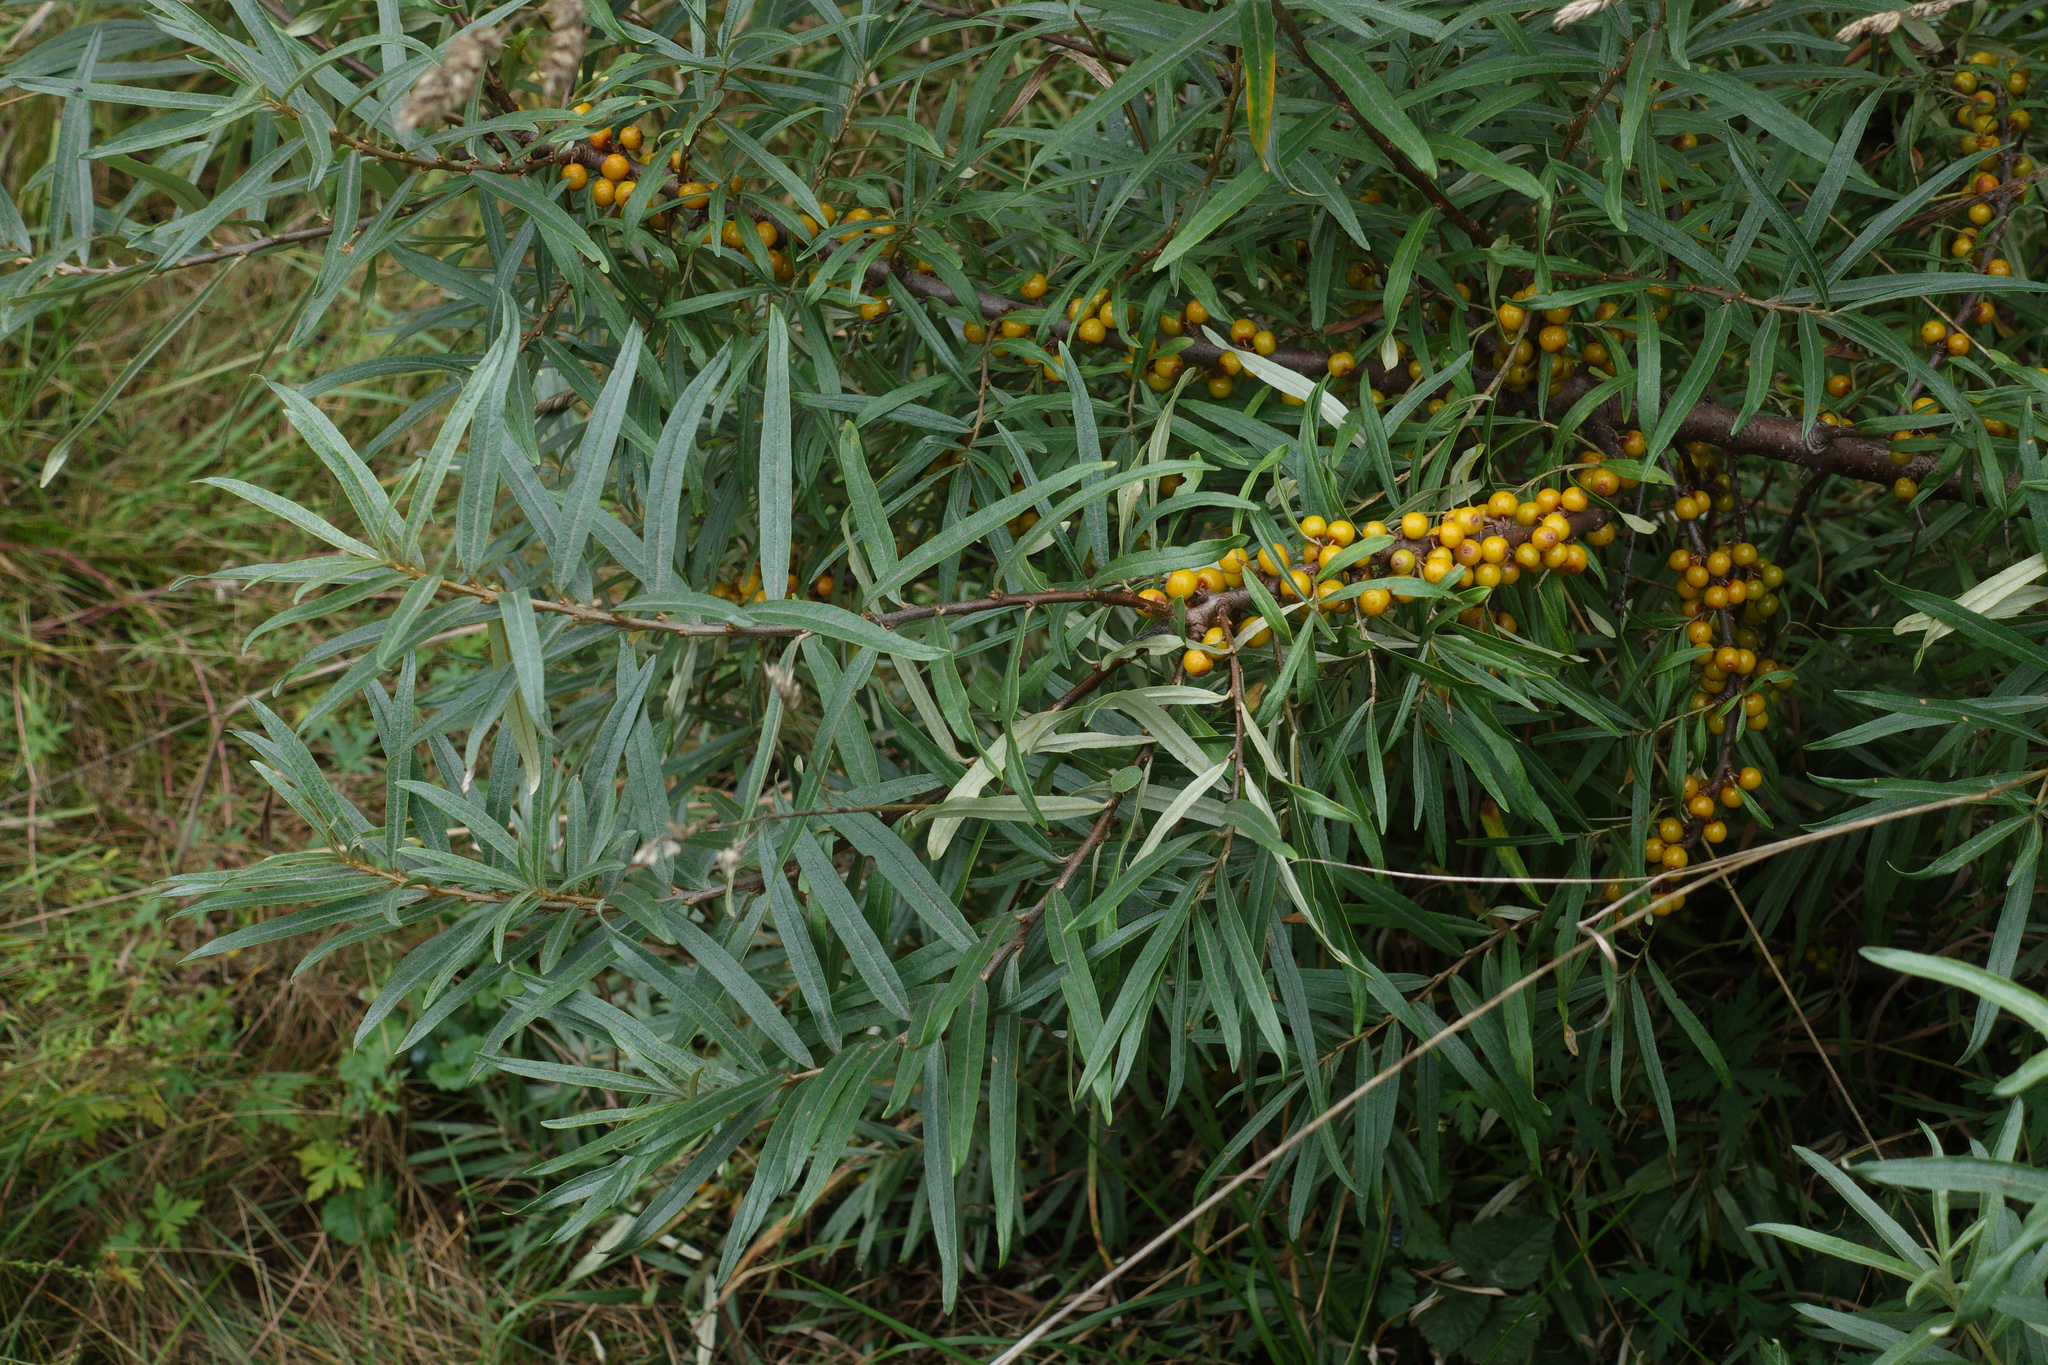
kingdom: Plantae
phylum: Tracheophyta
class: Magnoliopsida
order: Rosales
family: Elaeagnaceae
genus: Hippophae
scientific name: Hippophae rhamnoides
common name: Sea-buckthorn
